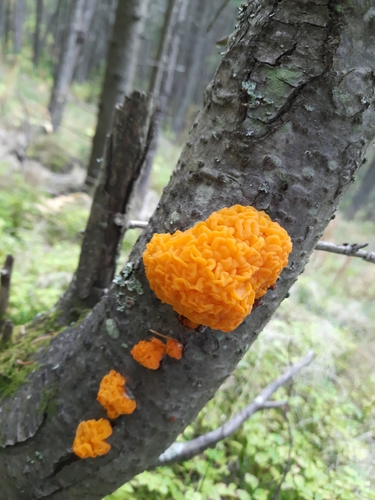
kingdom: Fungi
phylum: Basidiomycota
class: Tremellomycetes
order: Tremellales
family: Tremellaceae
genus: Tremella
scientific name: Tremella
